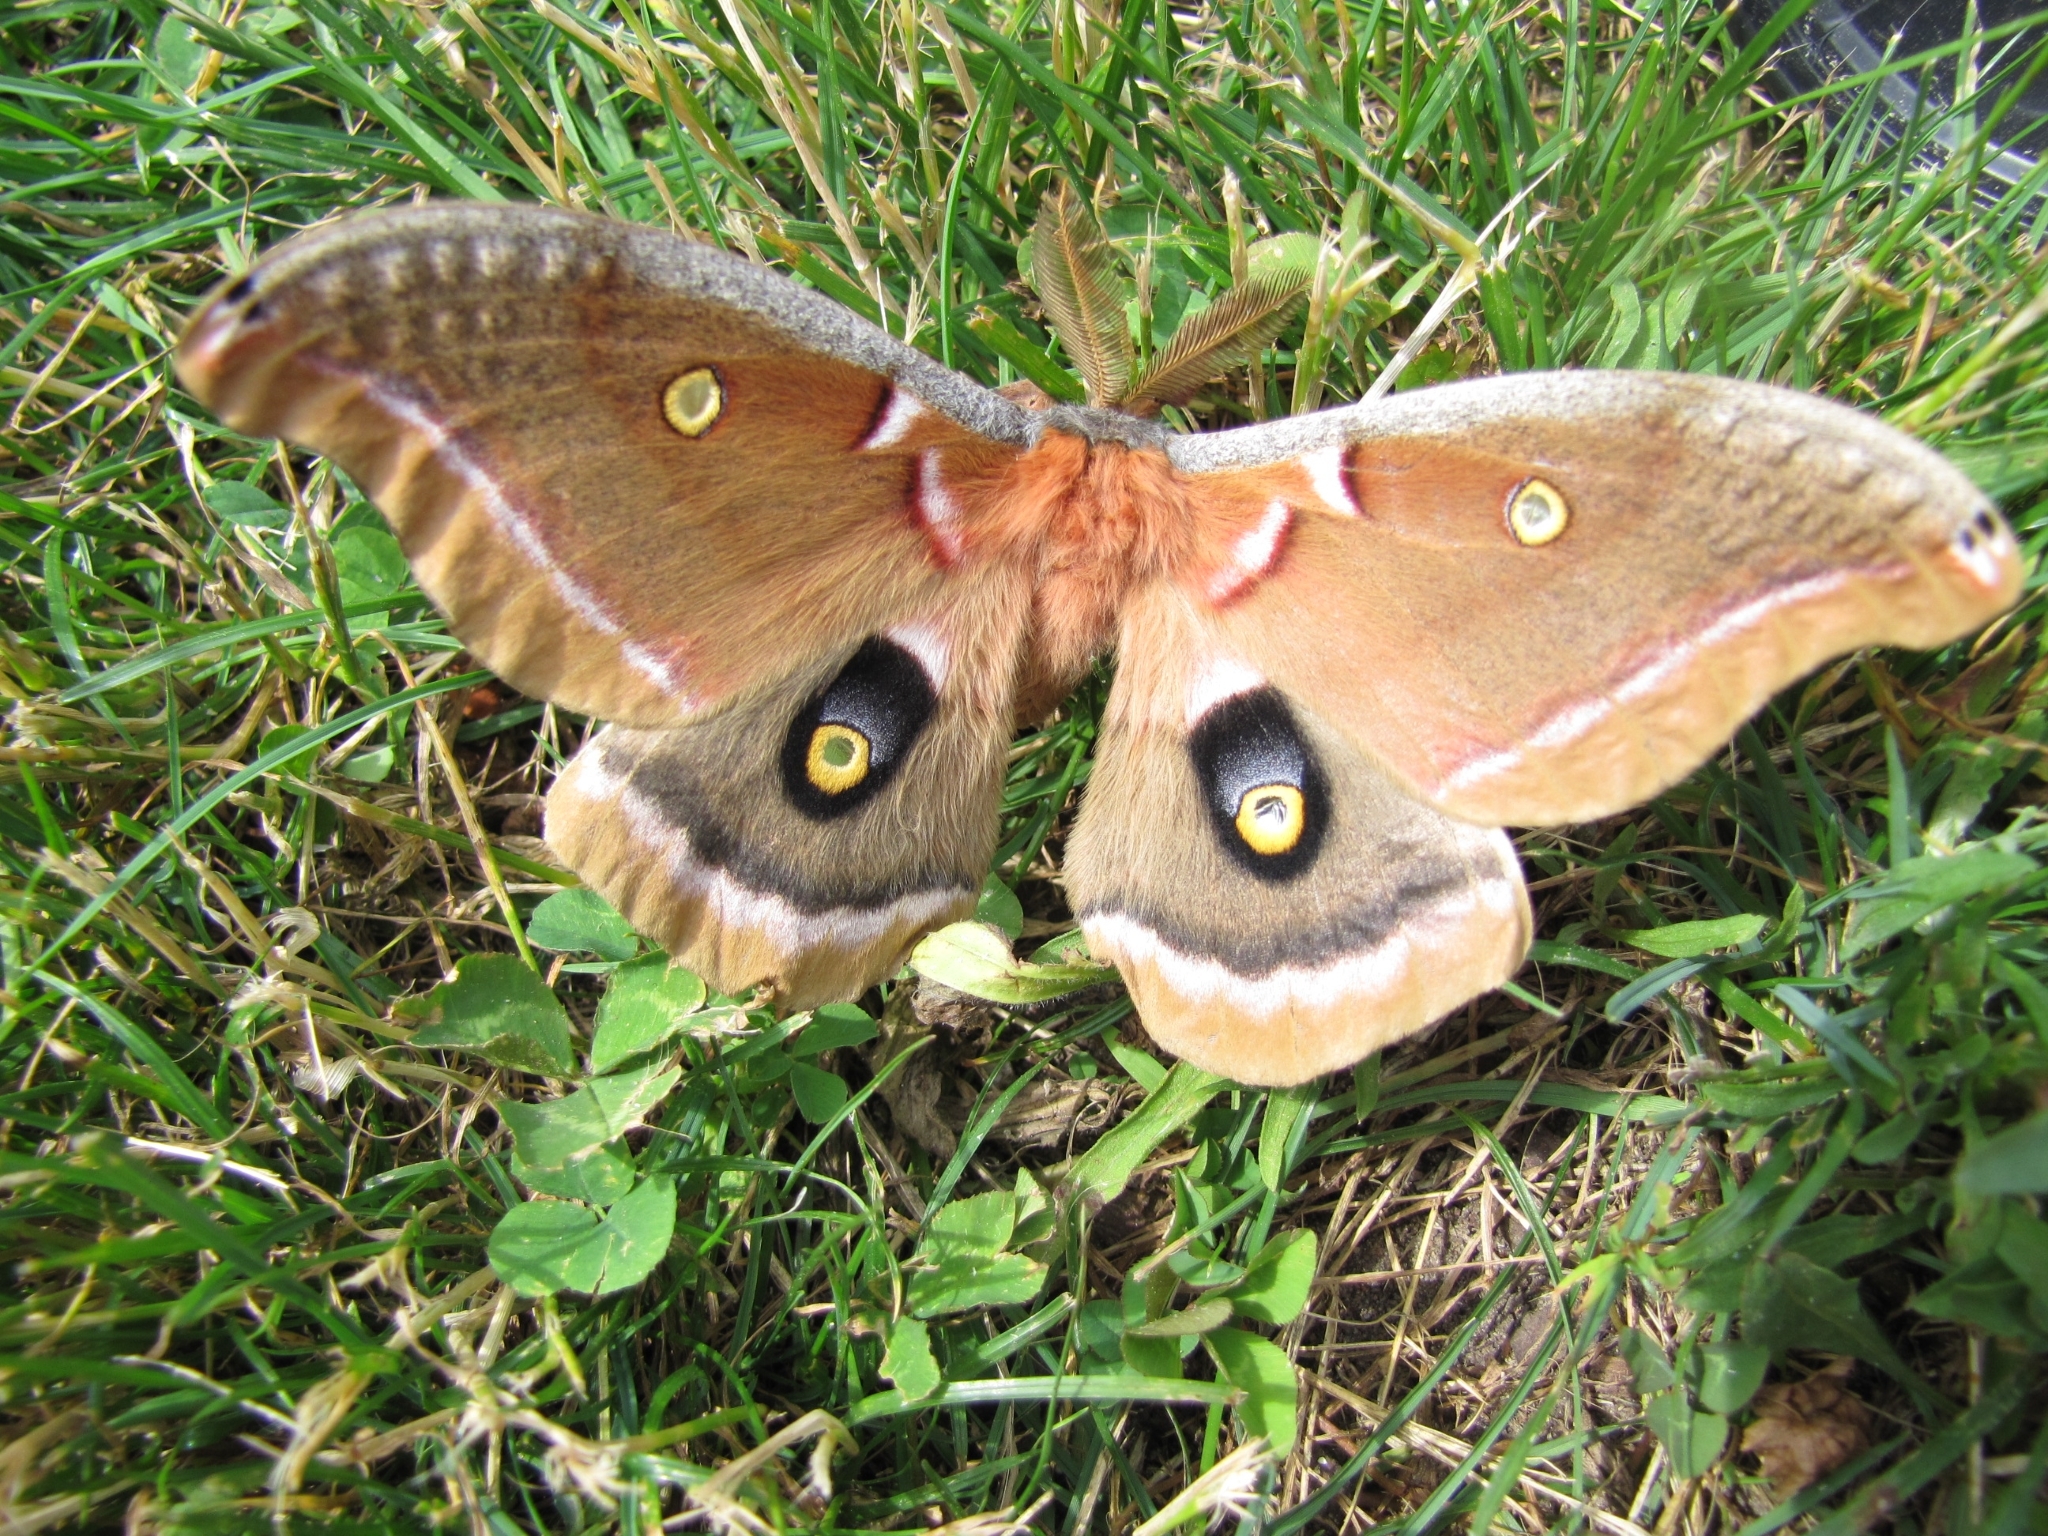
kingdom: Animalia
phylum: Arthropoda
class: Insecta
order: Lepidoptera
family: Saturniidae
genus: Antheraea
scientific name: Antheraea polyphemus
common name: Polyphemus moth
